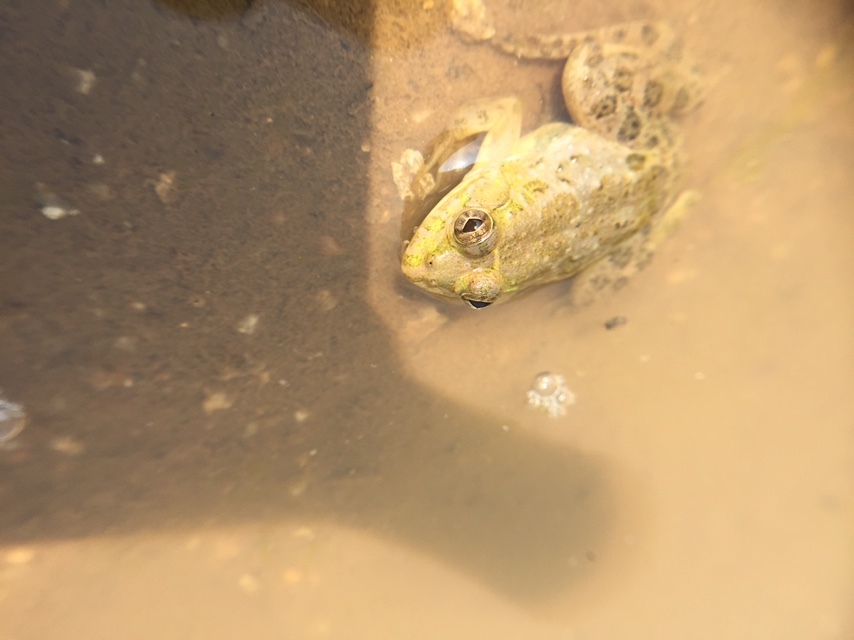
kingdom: Animalia
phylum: Chordata
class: Amphibia
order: Anura
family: Dicroglossidae
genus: Euphlyctis
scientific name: Euphlyctis cyanophlyctis
